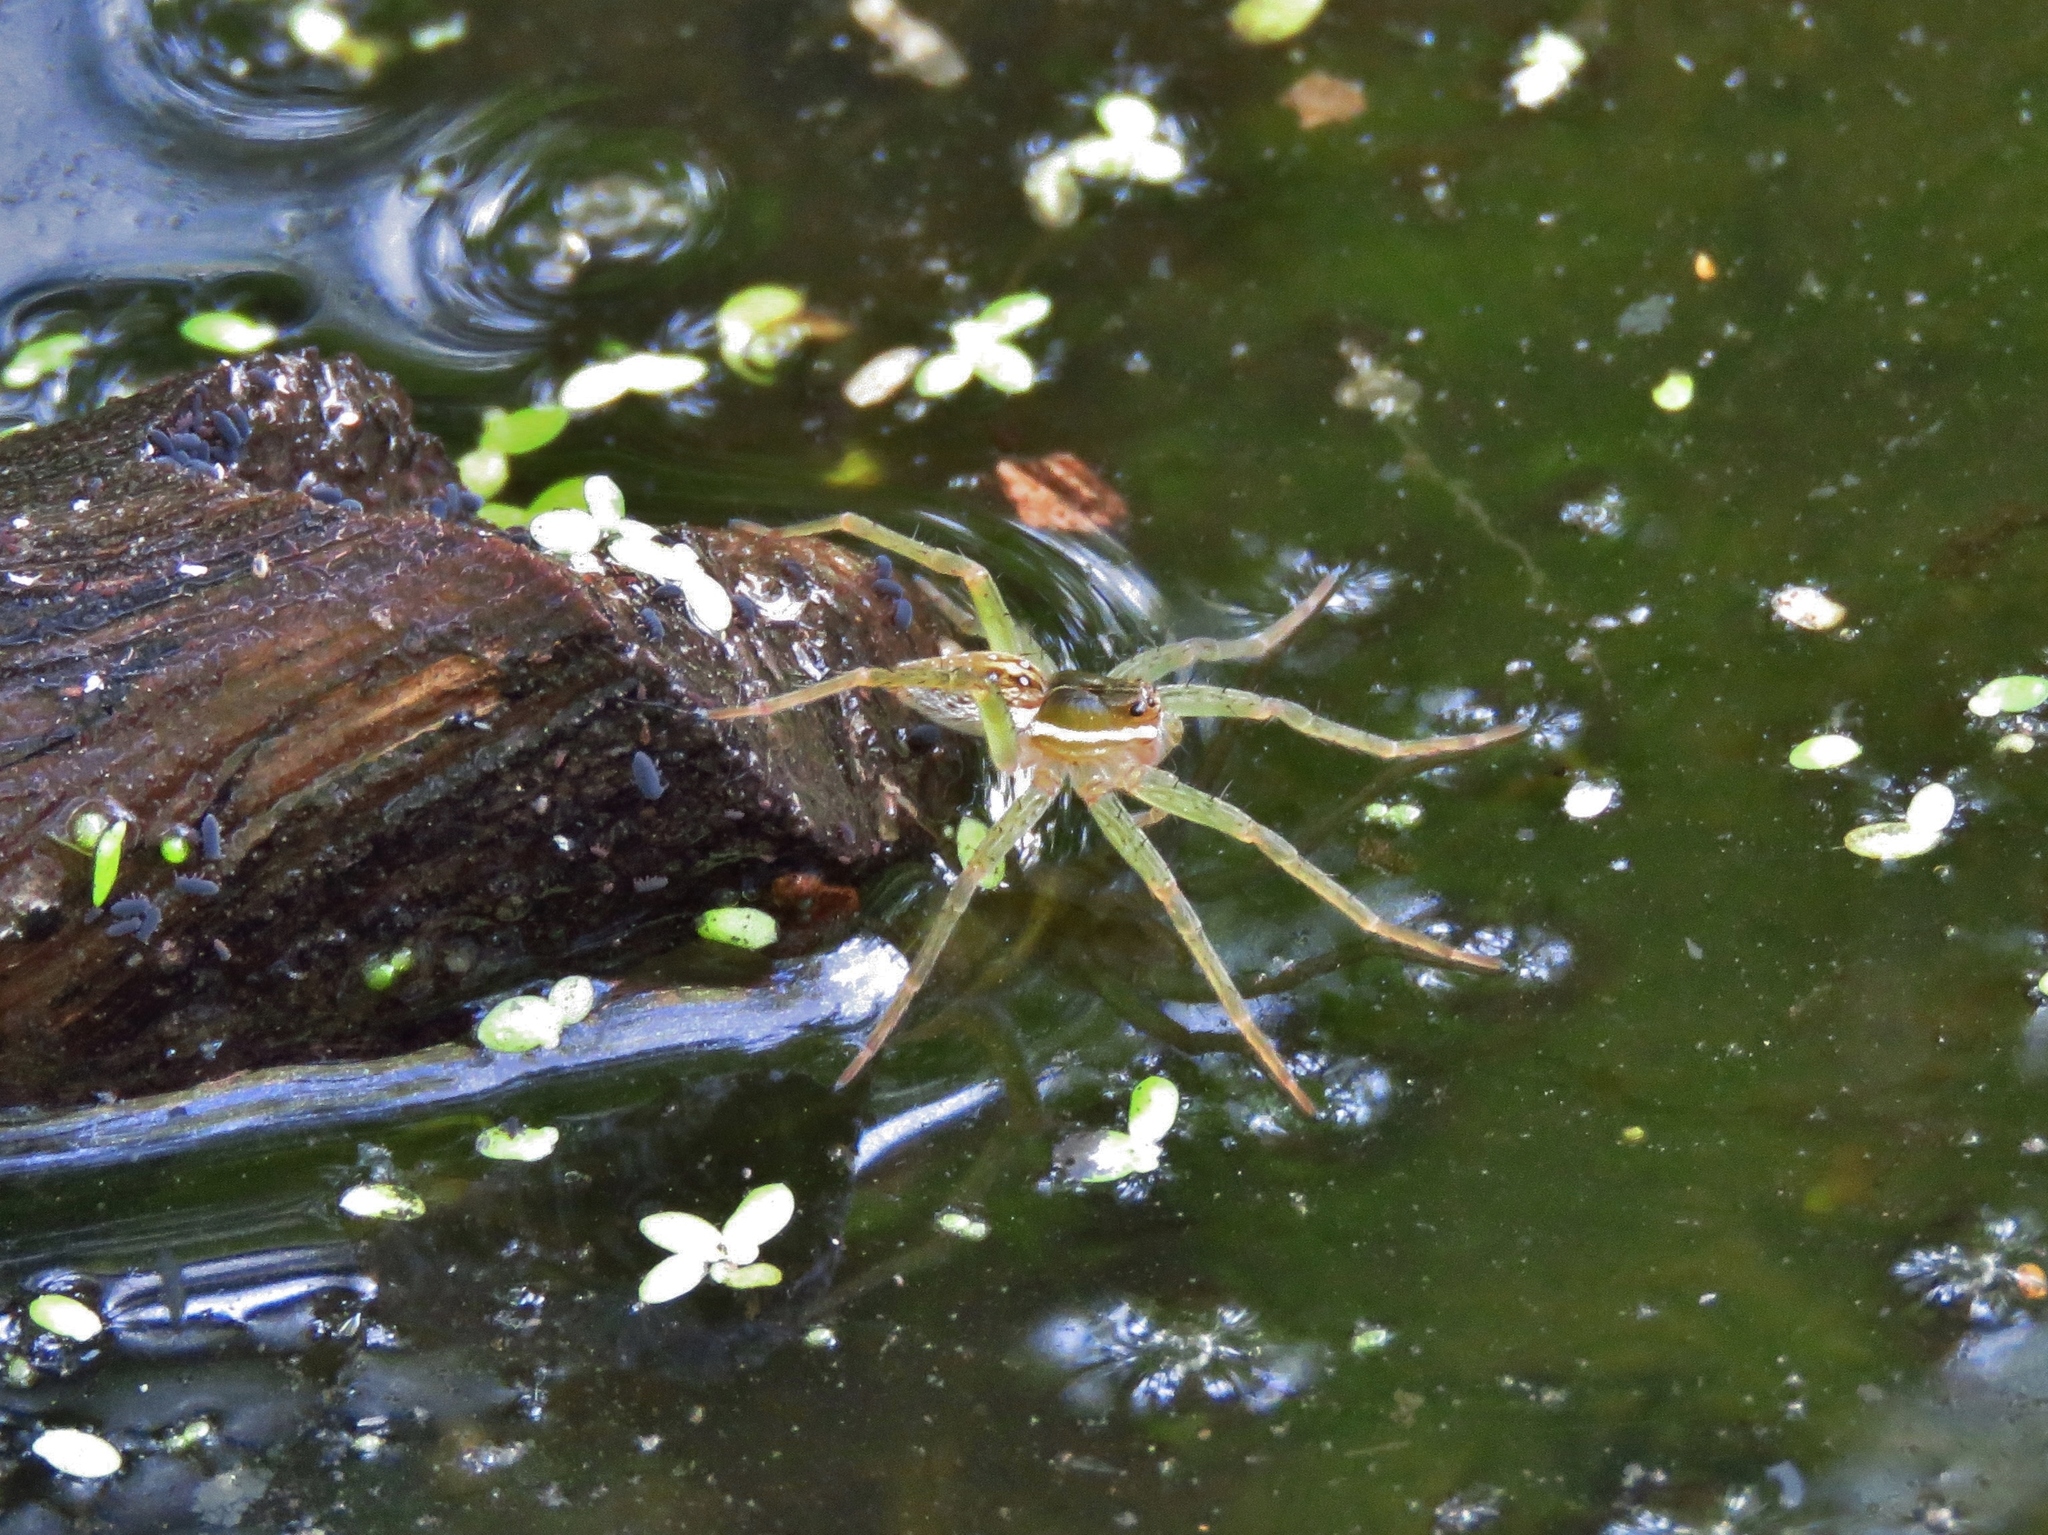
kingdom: Animalia
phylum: Arthropoda
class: Arachnida
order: Araneae
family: Pisauridae
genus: Dolomedes
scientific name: Dolomedes triton
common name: Six-spotted fishing spider
